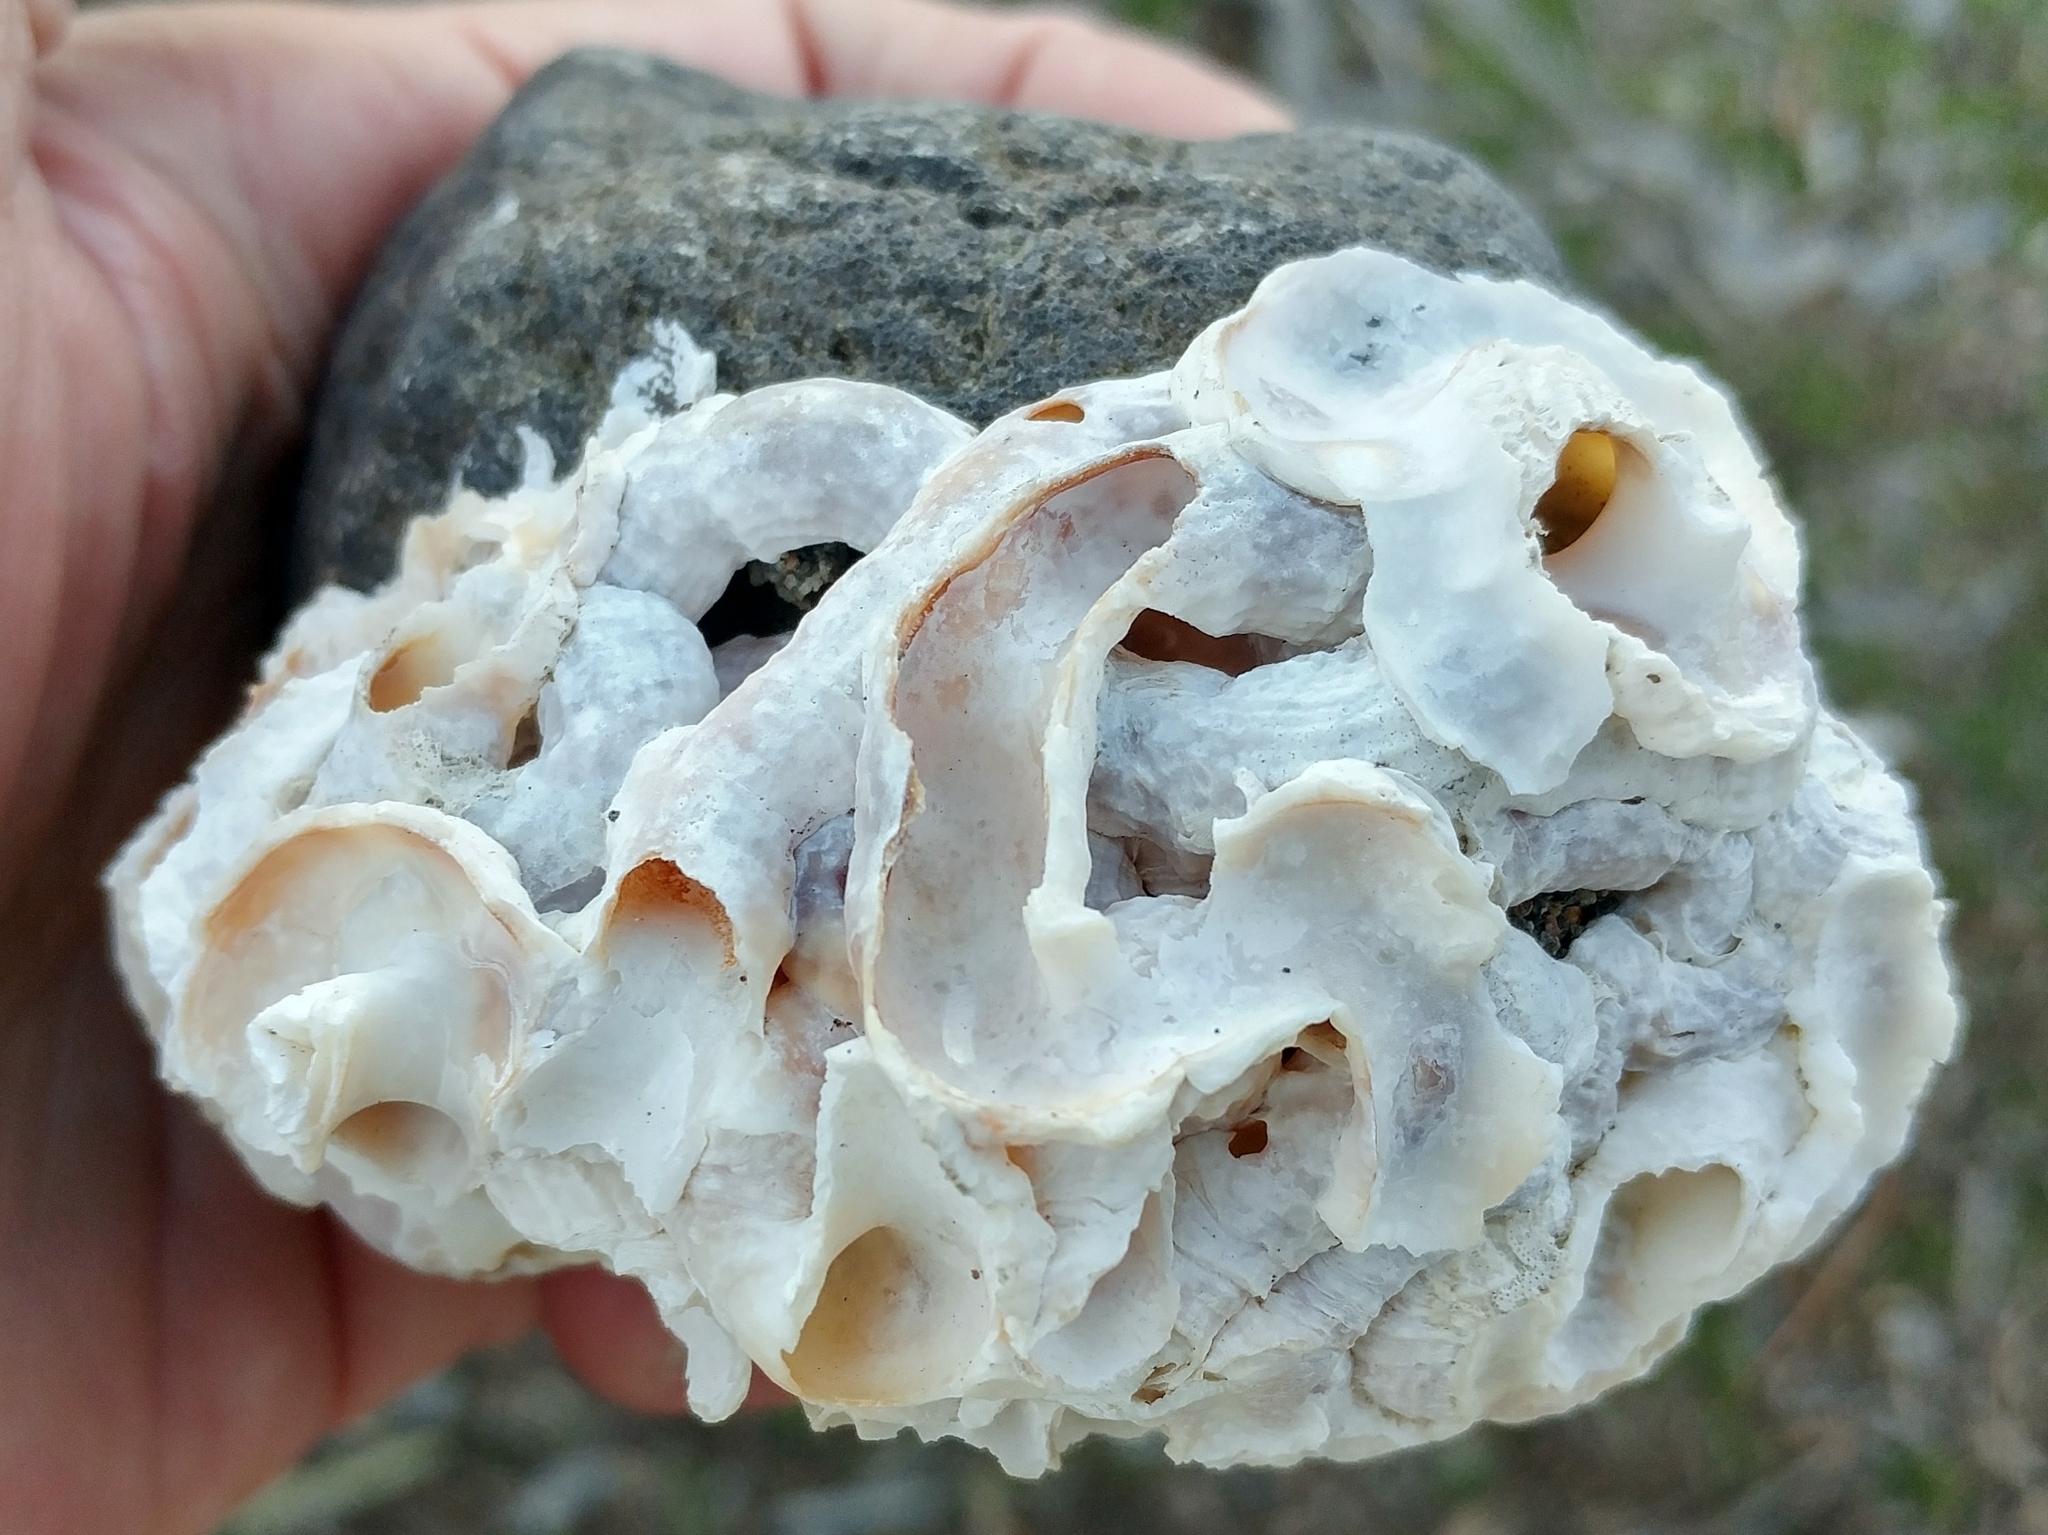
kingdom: Animalia
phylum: Mollusca
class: Gastropoda
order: Littorinimorpha
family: Vermetidae
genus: Thylacodes
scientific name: Thylacodes squamigerus
